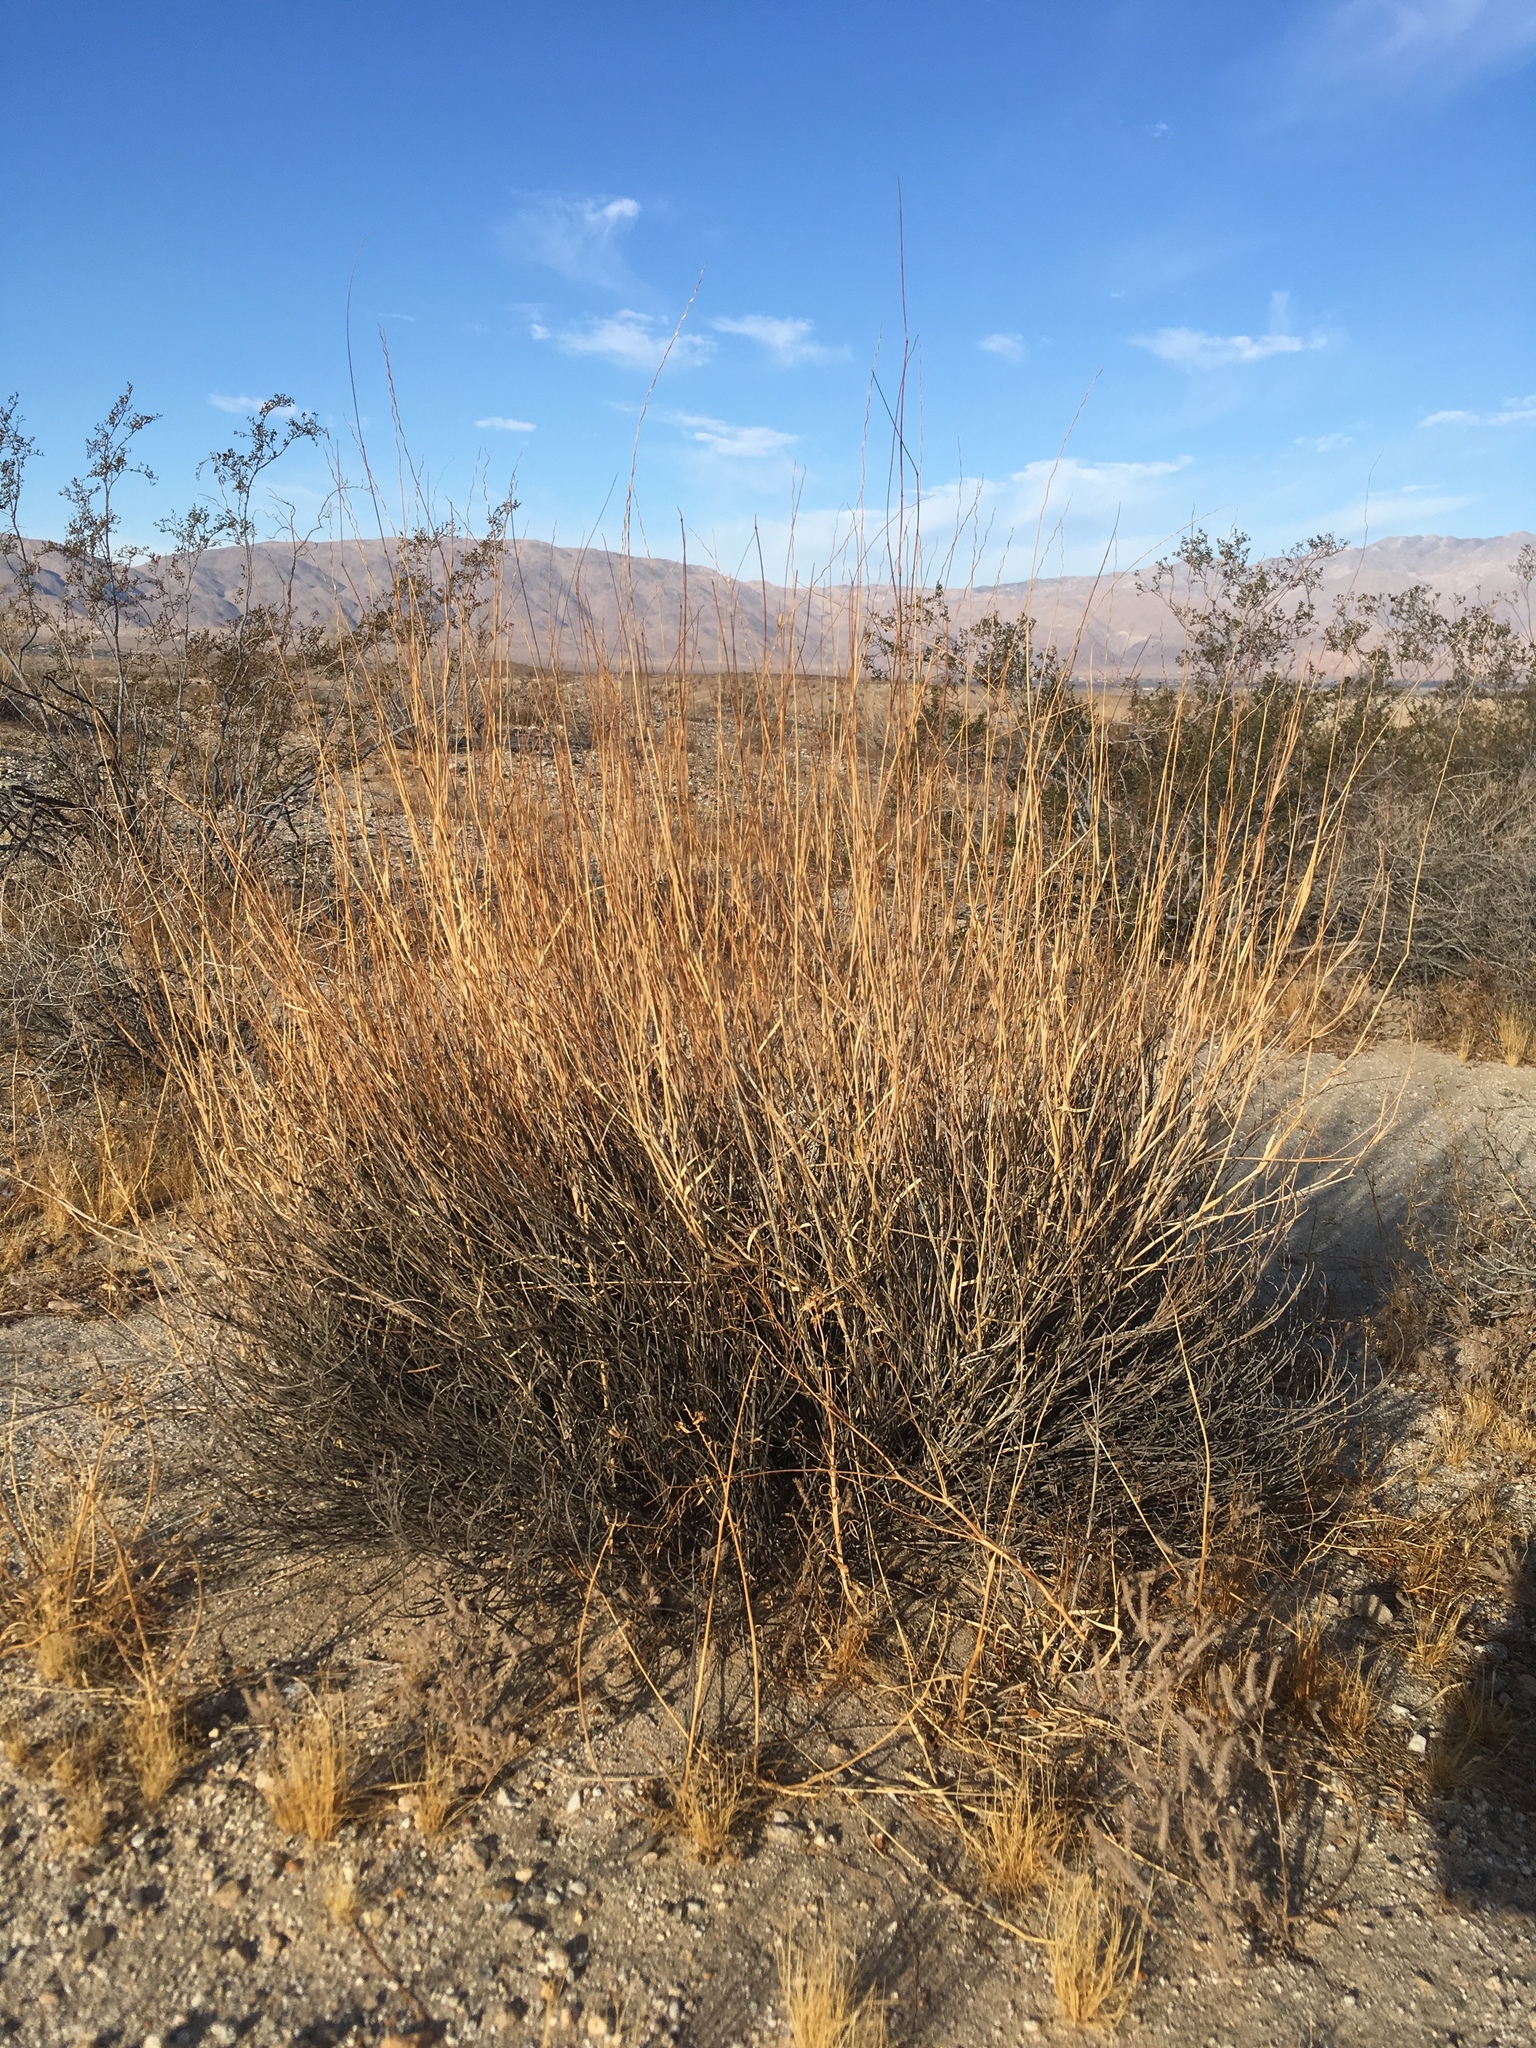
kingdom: Plantae
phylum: Tracheophyta
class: Liliopsida
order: Poales
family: Poaceae
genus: Hilaria
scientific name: Hilaria rigida
